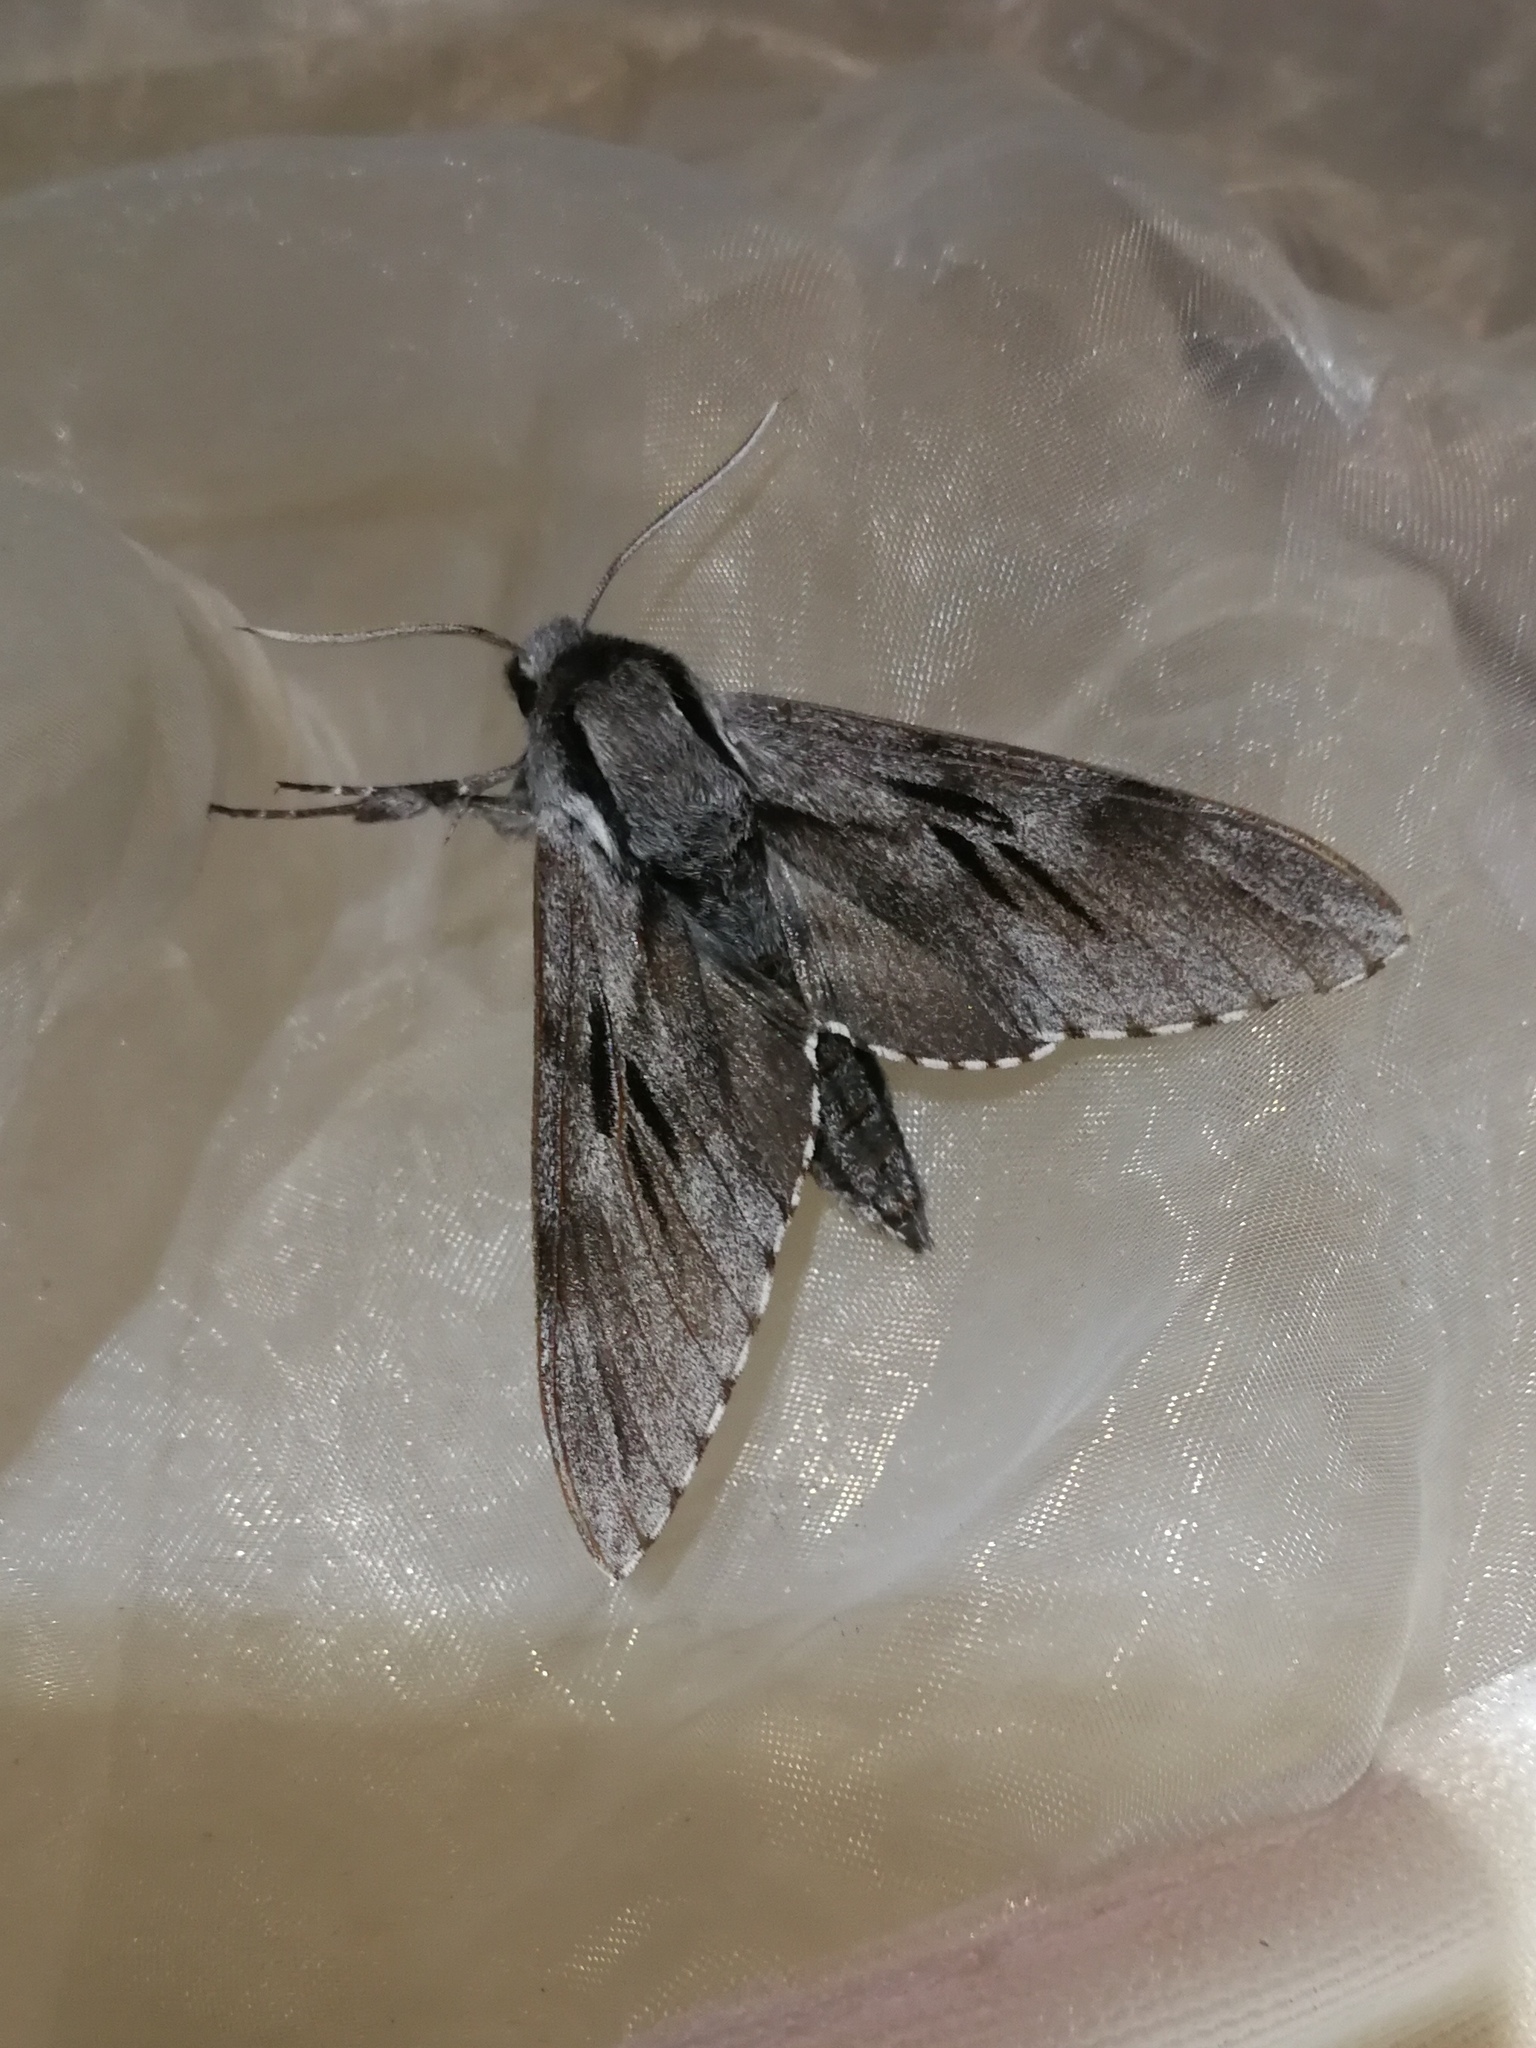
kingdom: Animalia
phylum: Arthropoda
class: Insecta
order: Lepidoptera
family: Sphingidae
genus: Sphinx
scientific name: Sphinx maurorum
